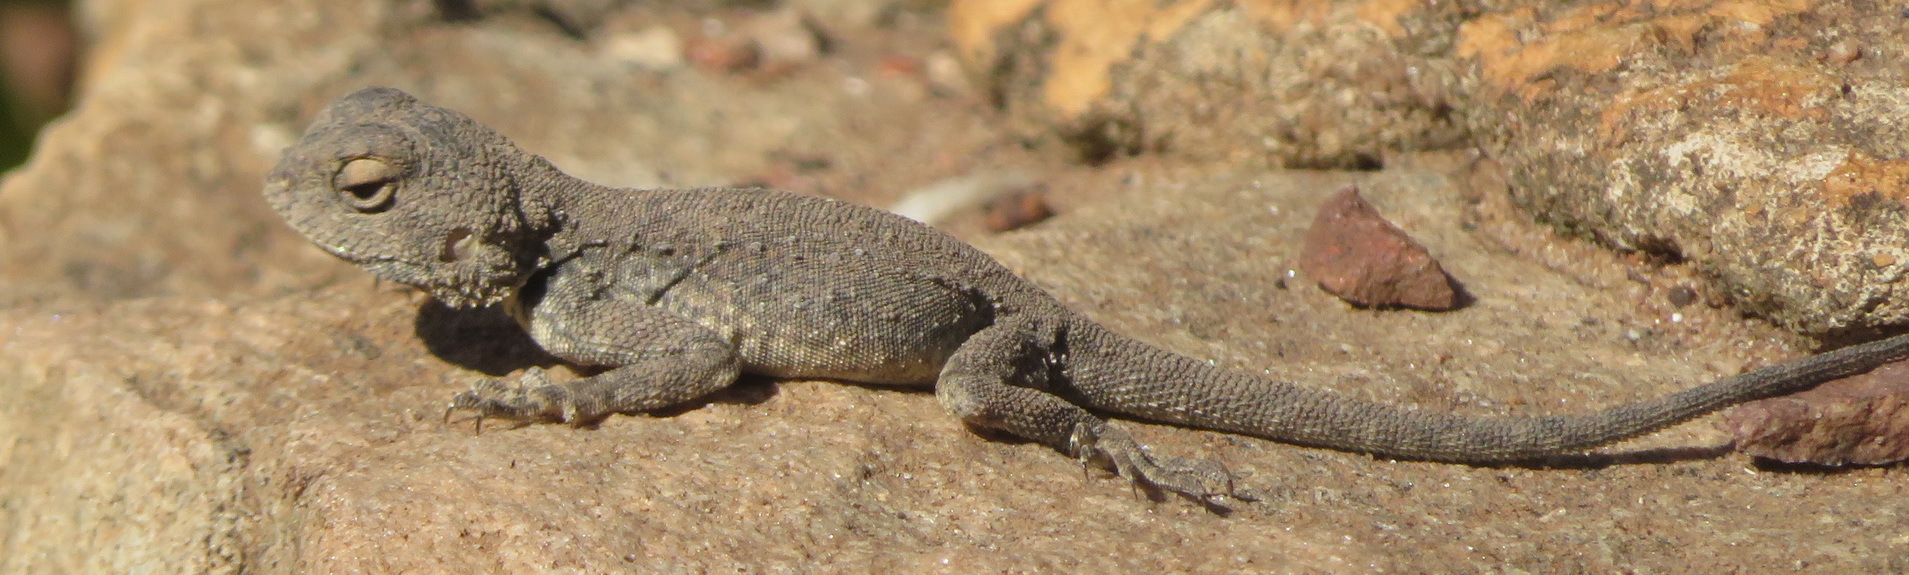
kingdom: Animalia
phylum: Chordata
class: Squamata
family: Agamidae
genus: Agama
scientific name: Agama atra
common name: Southern african rock agama
